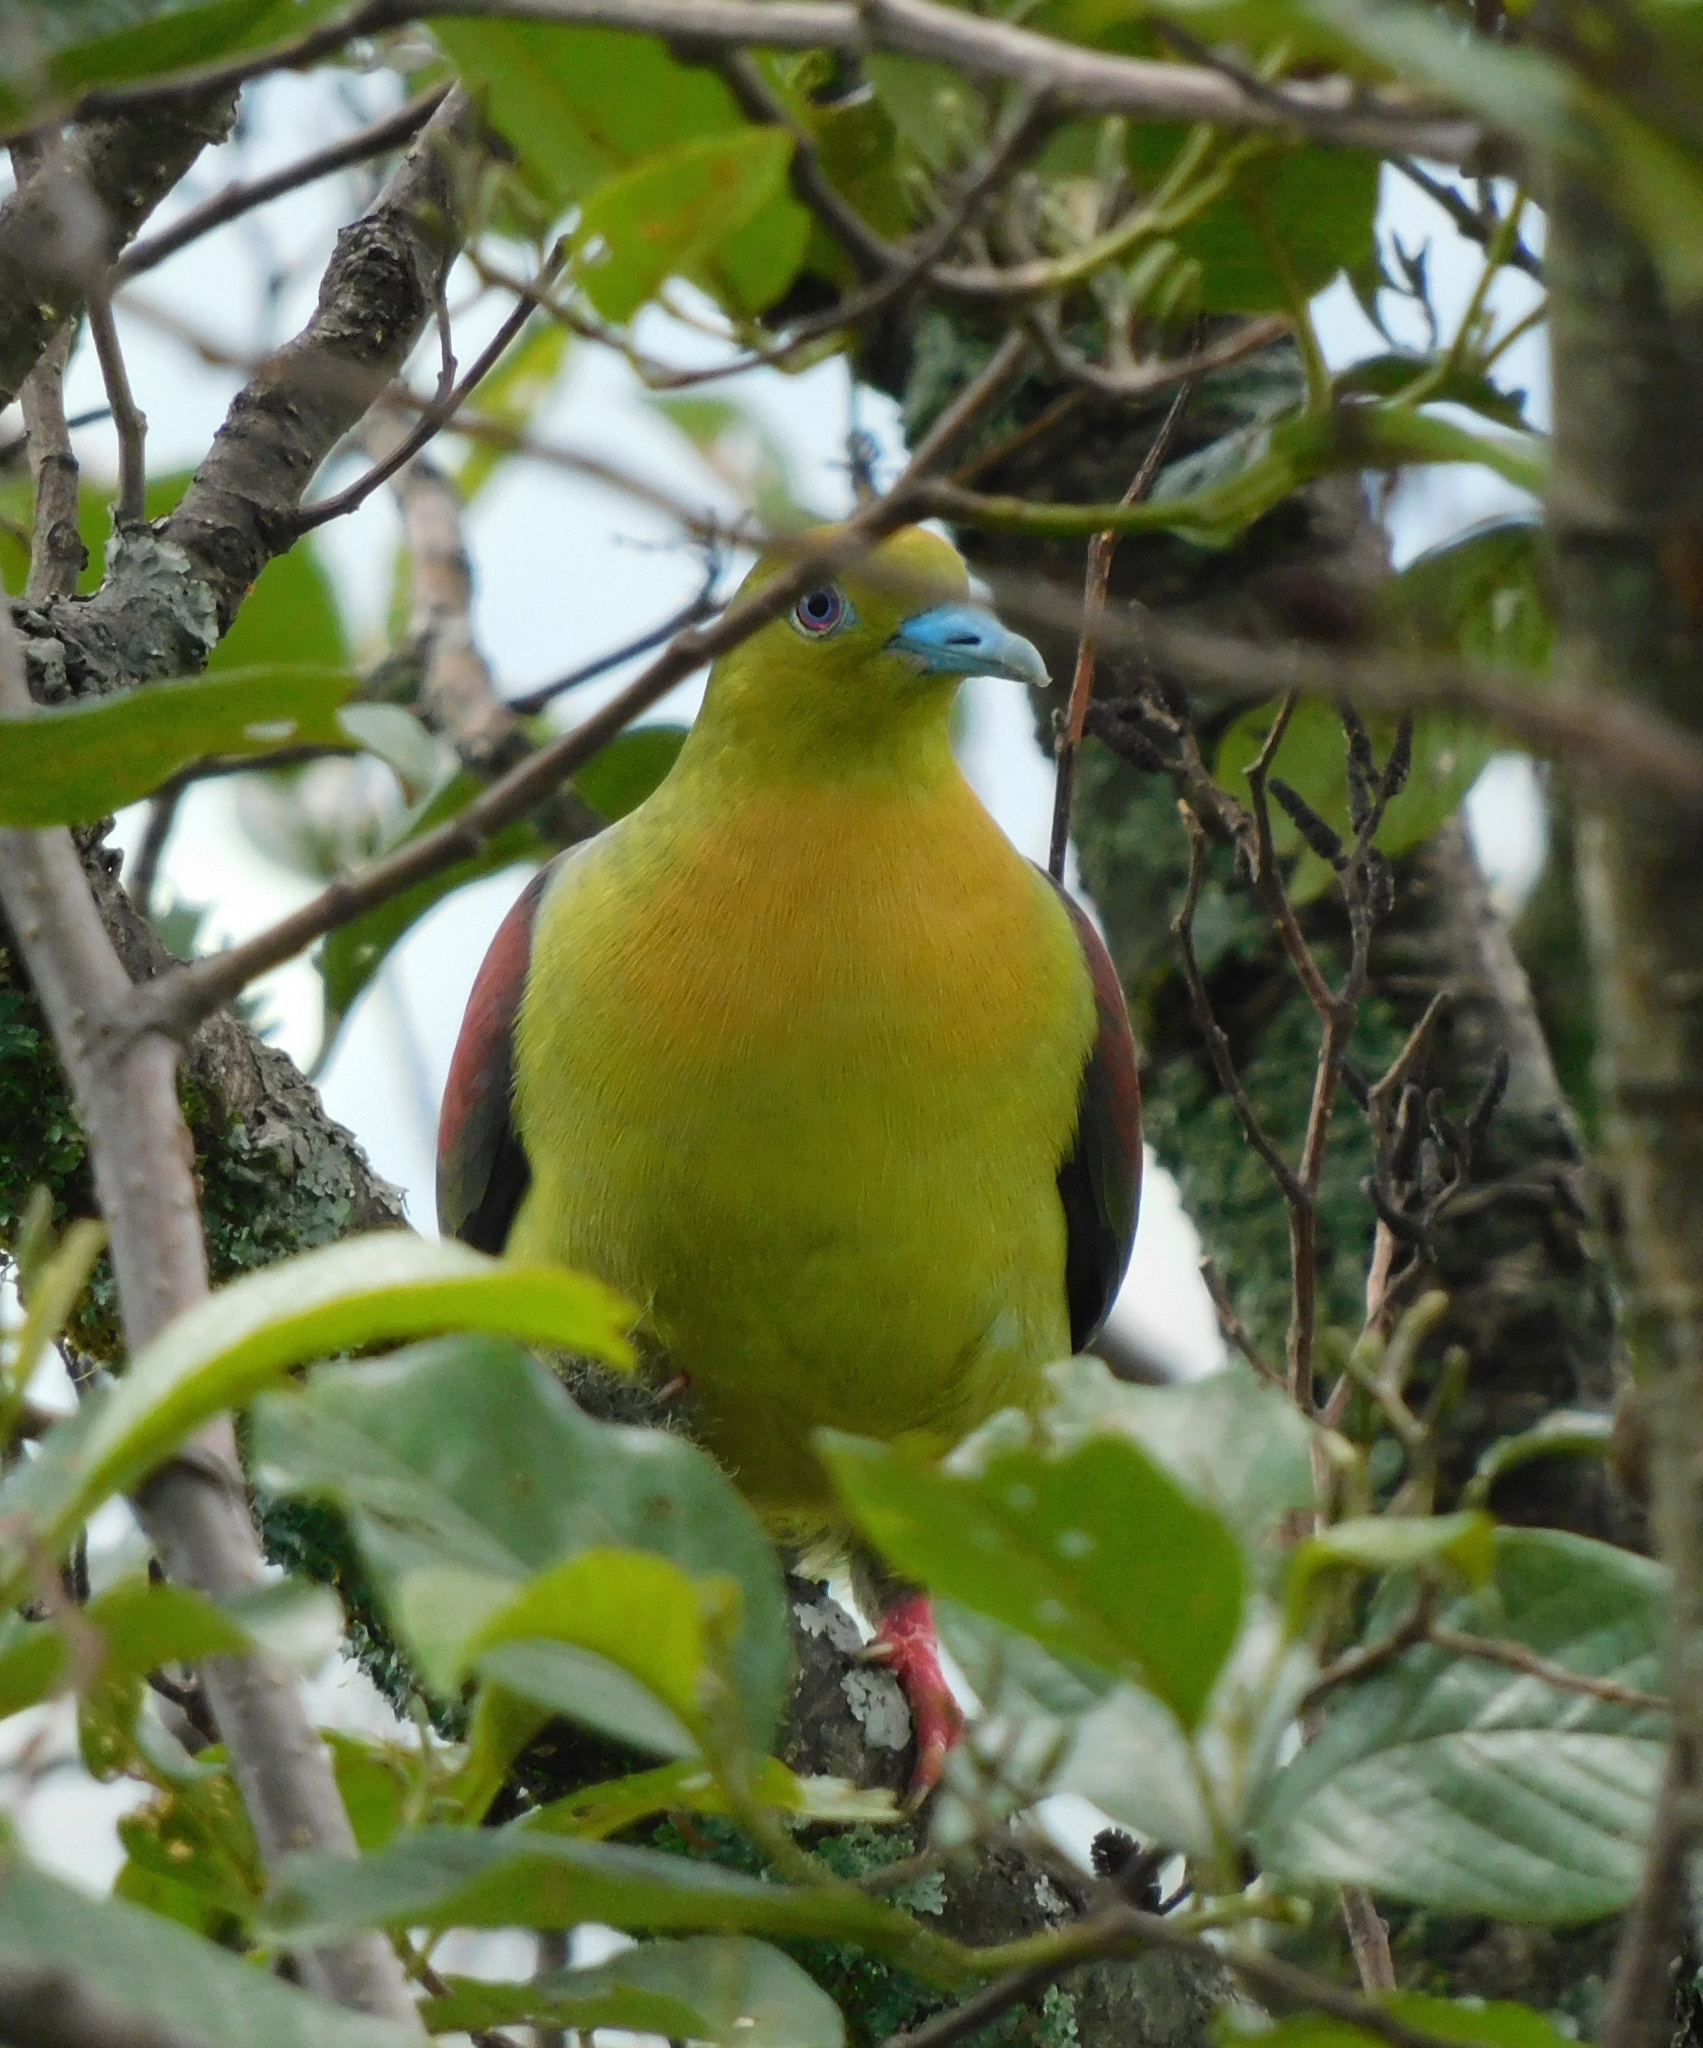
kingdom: Animalia
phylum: Chordata
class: Aves
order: Columbiformes
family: Columbidae
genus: Treron
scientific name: Treron sphenurus
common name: Wedge-tailed green pigeon
